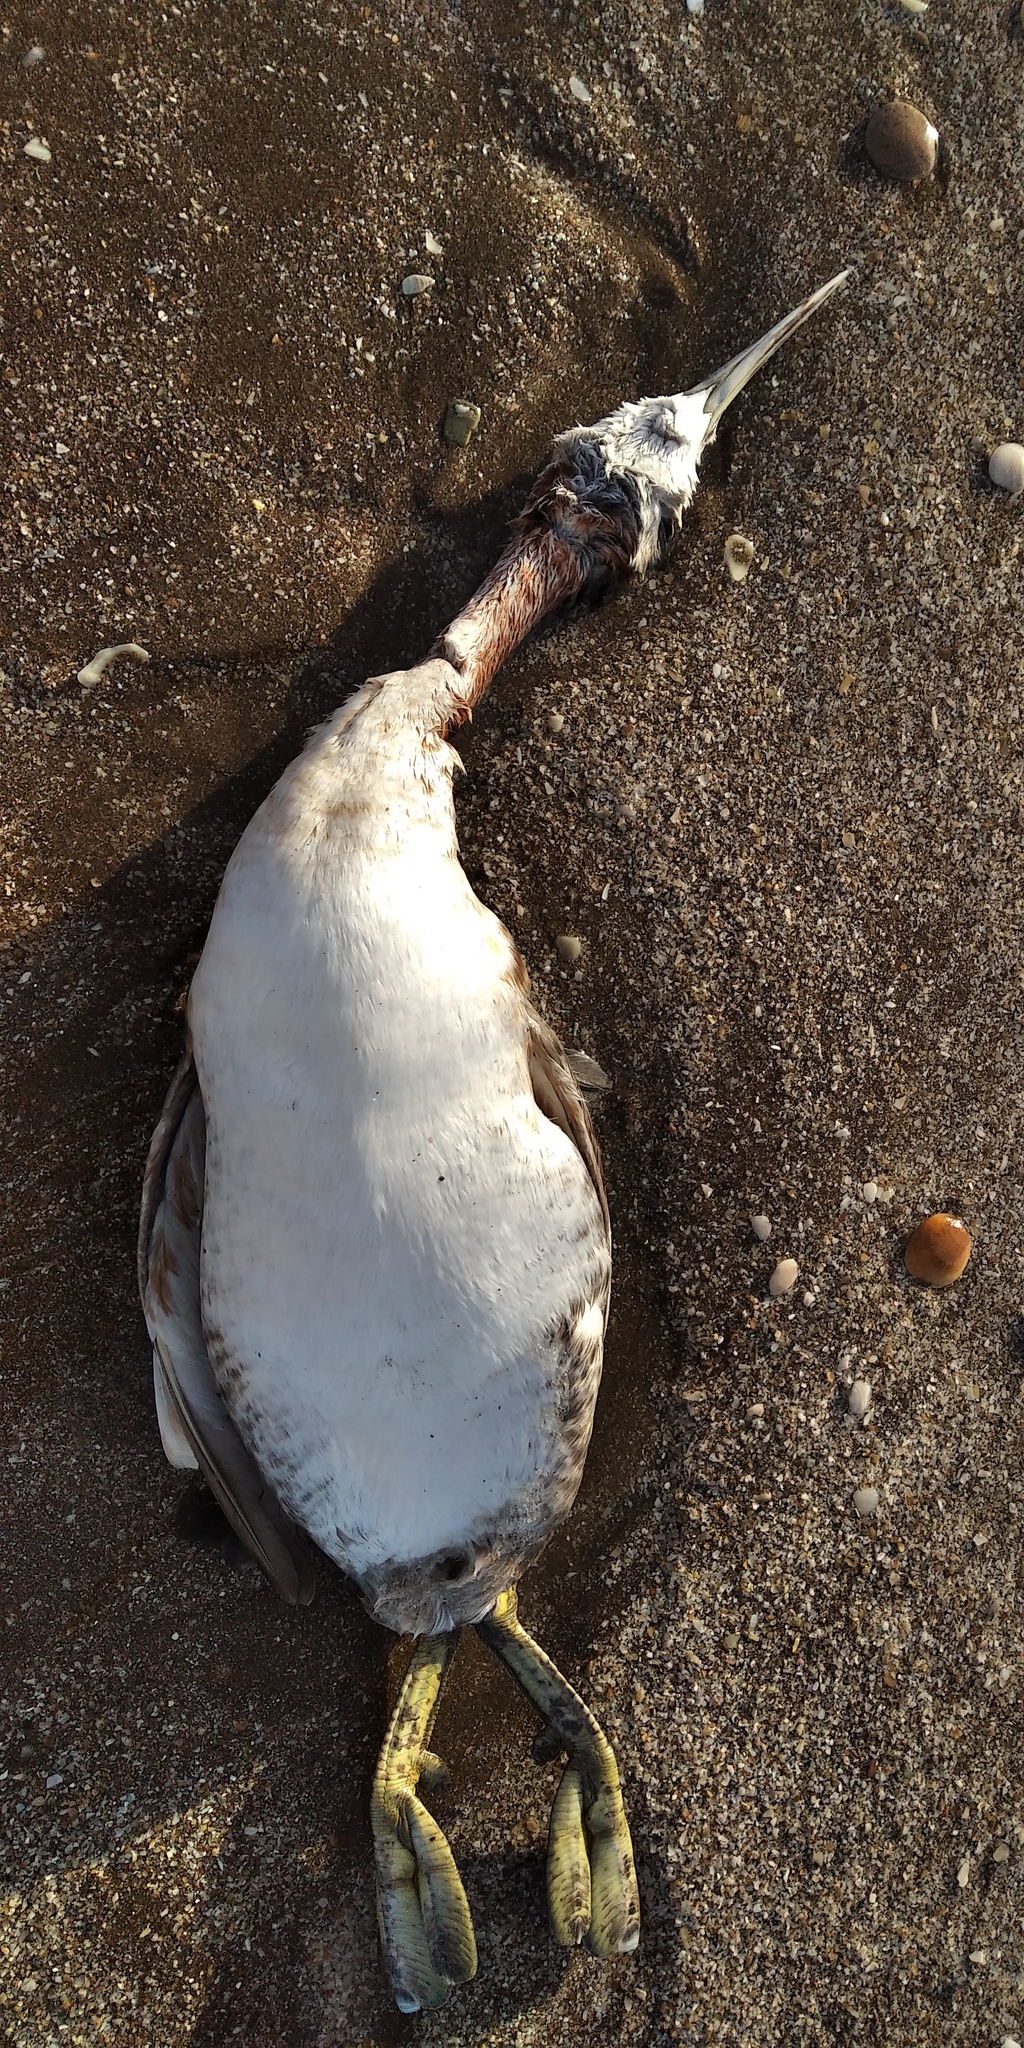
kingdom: Animalia
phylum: Chordata
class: Aves
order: Podicipediformes
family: Podicipedidae
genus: Podiceps
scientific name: Podiceps major
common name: Great grebe
